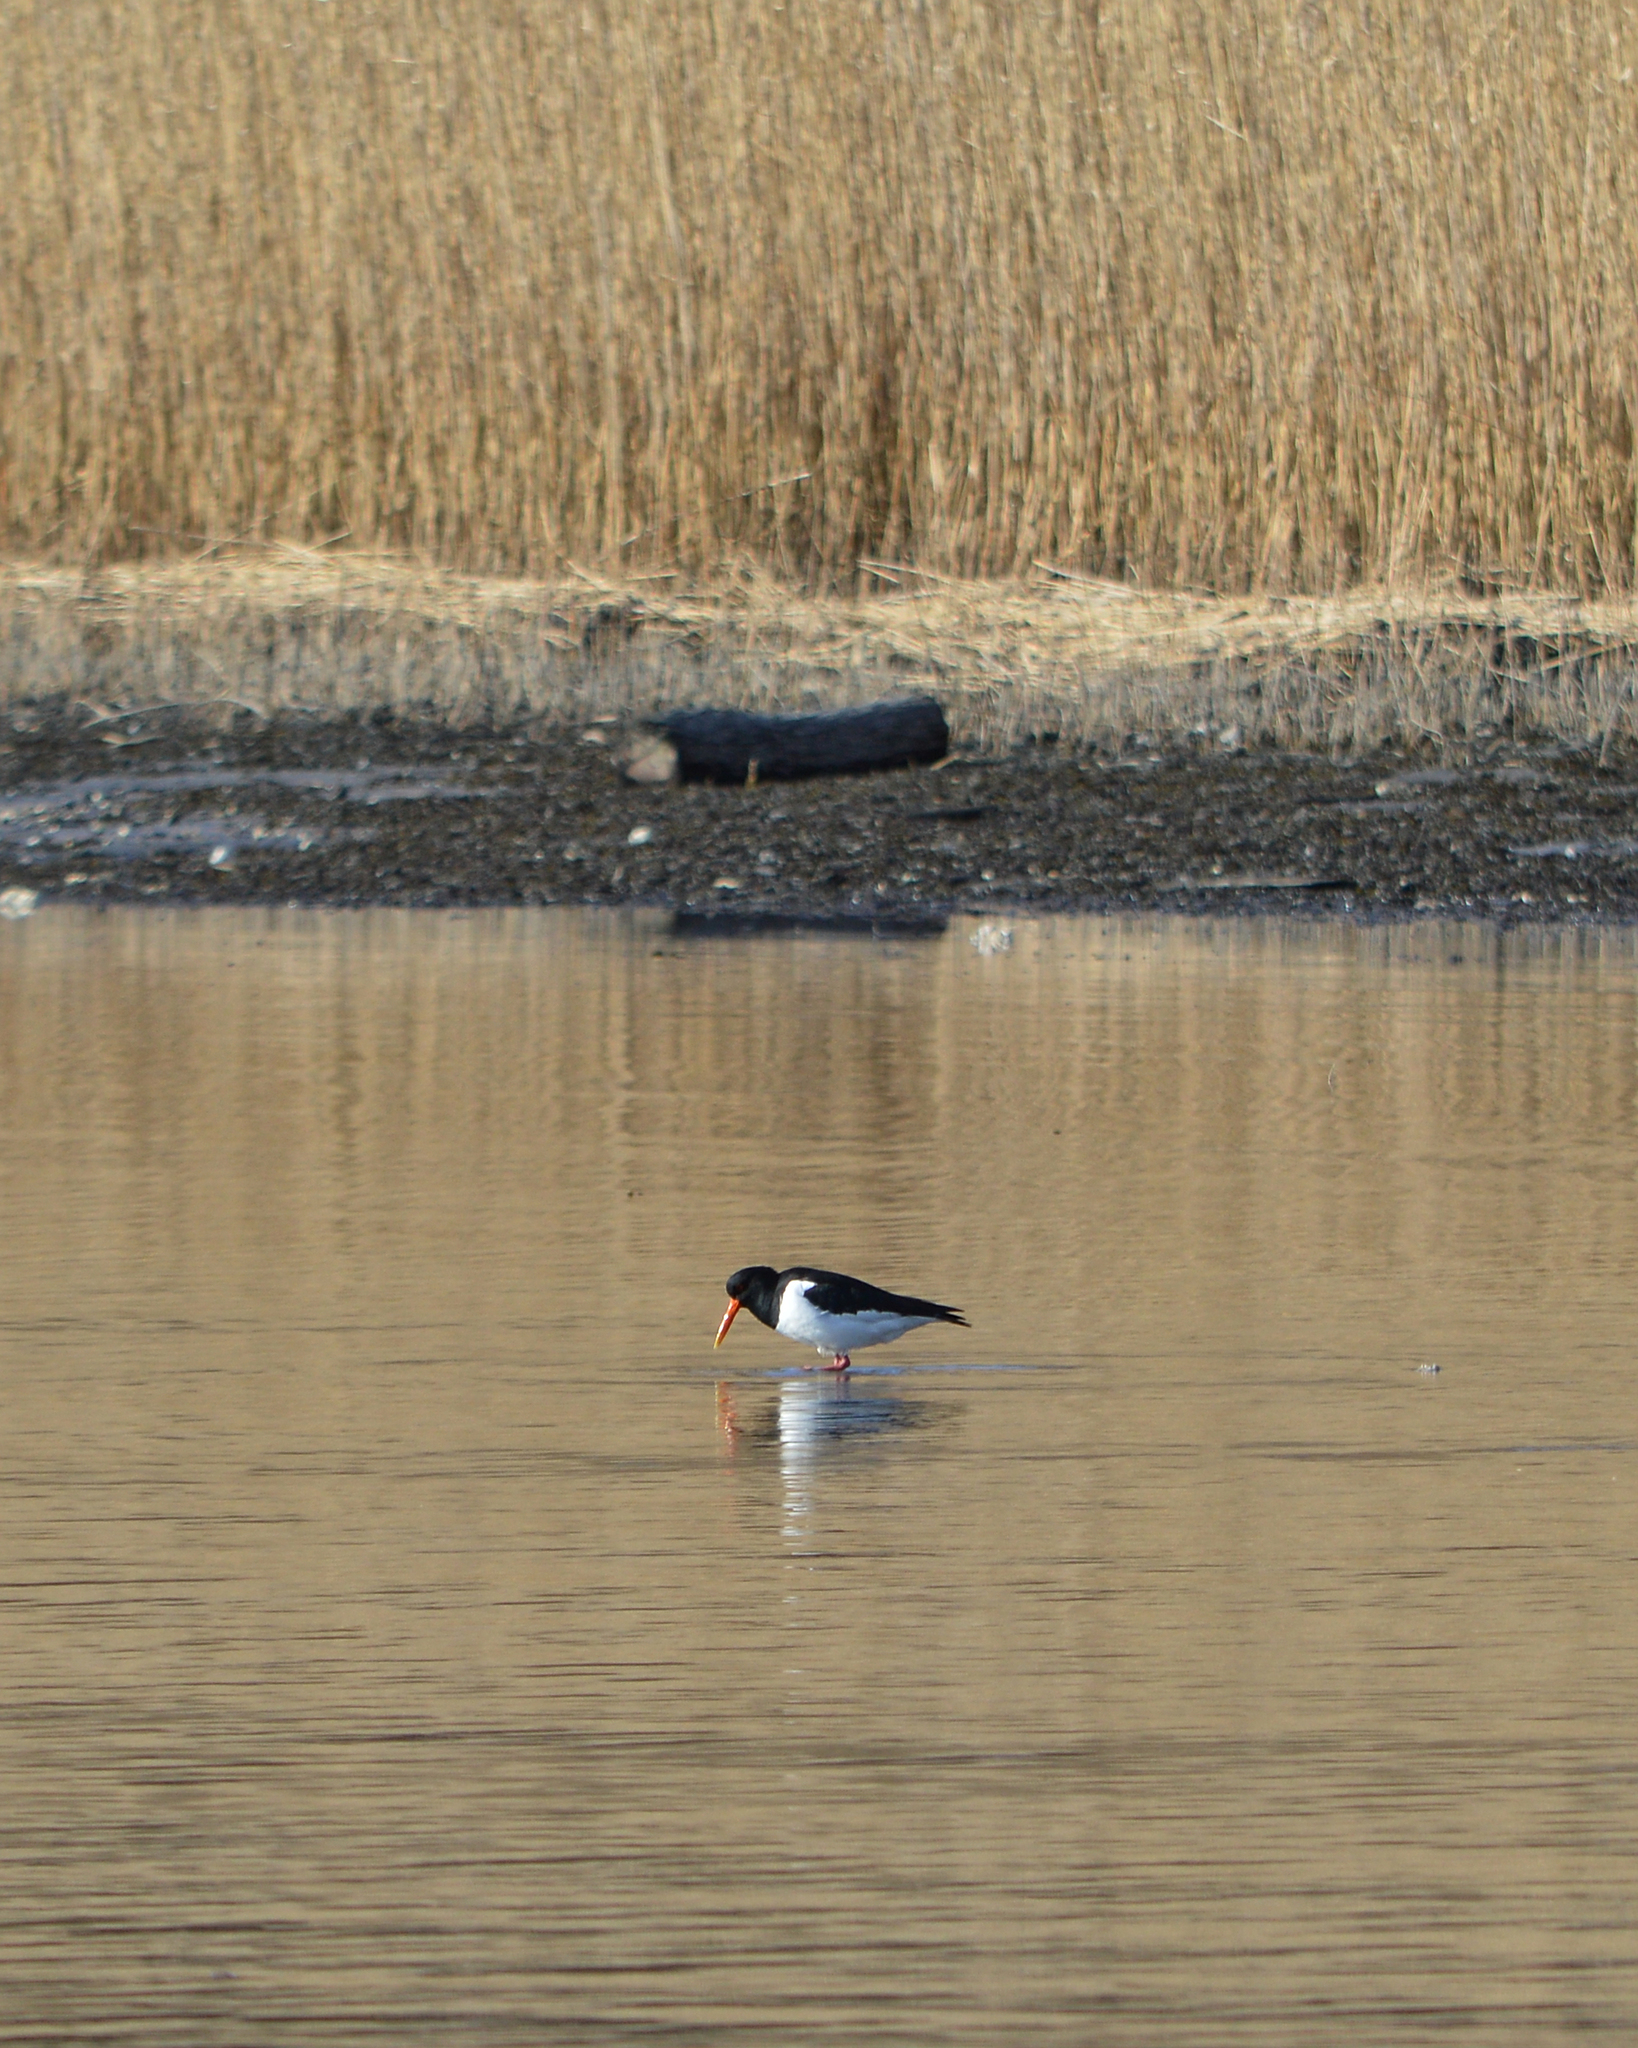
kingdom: Animalia
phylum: Chordata
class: Aves
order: Charadriiformes
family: Haematopodidae
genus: Haematopus
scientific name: Haematopus ostralegus
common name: Eurasian oystercatcher
